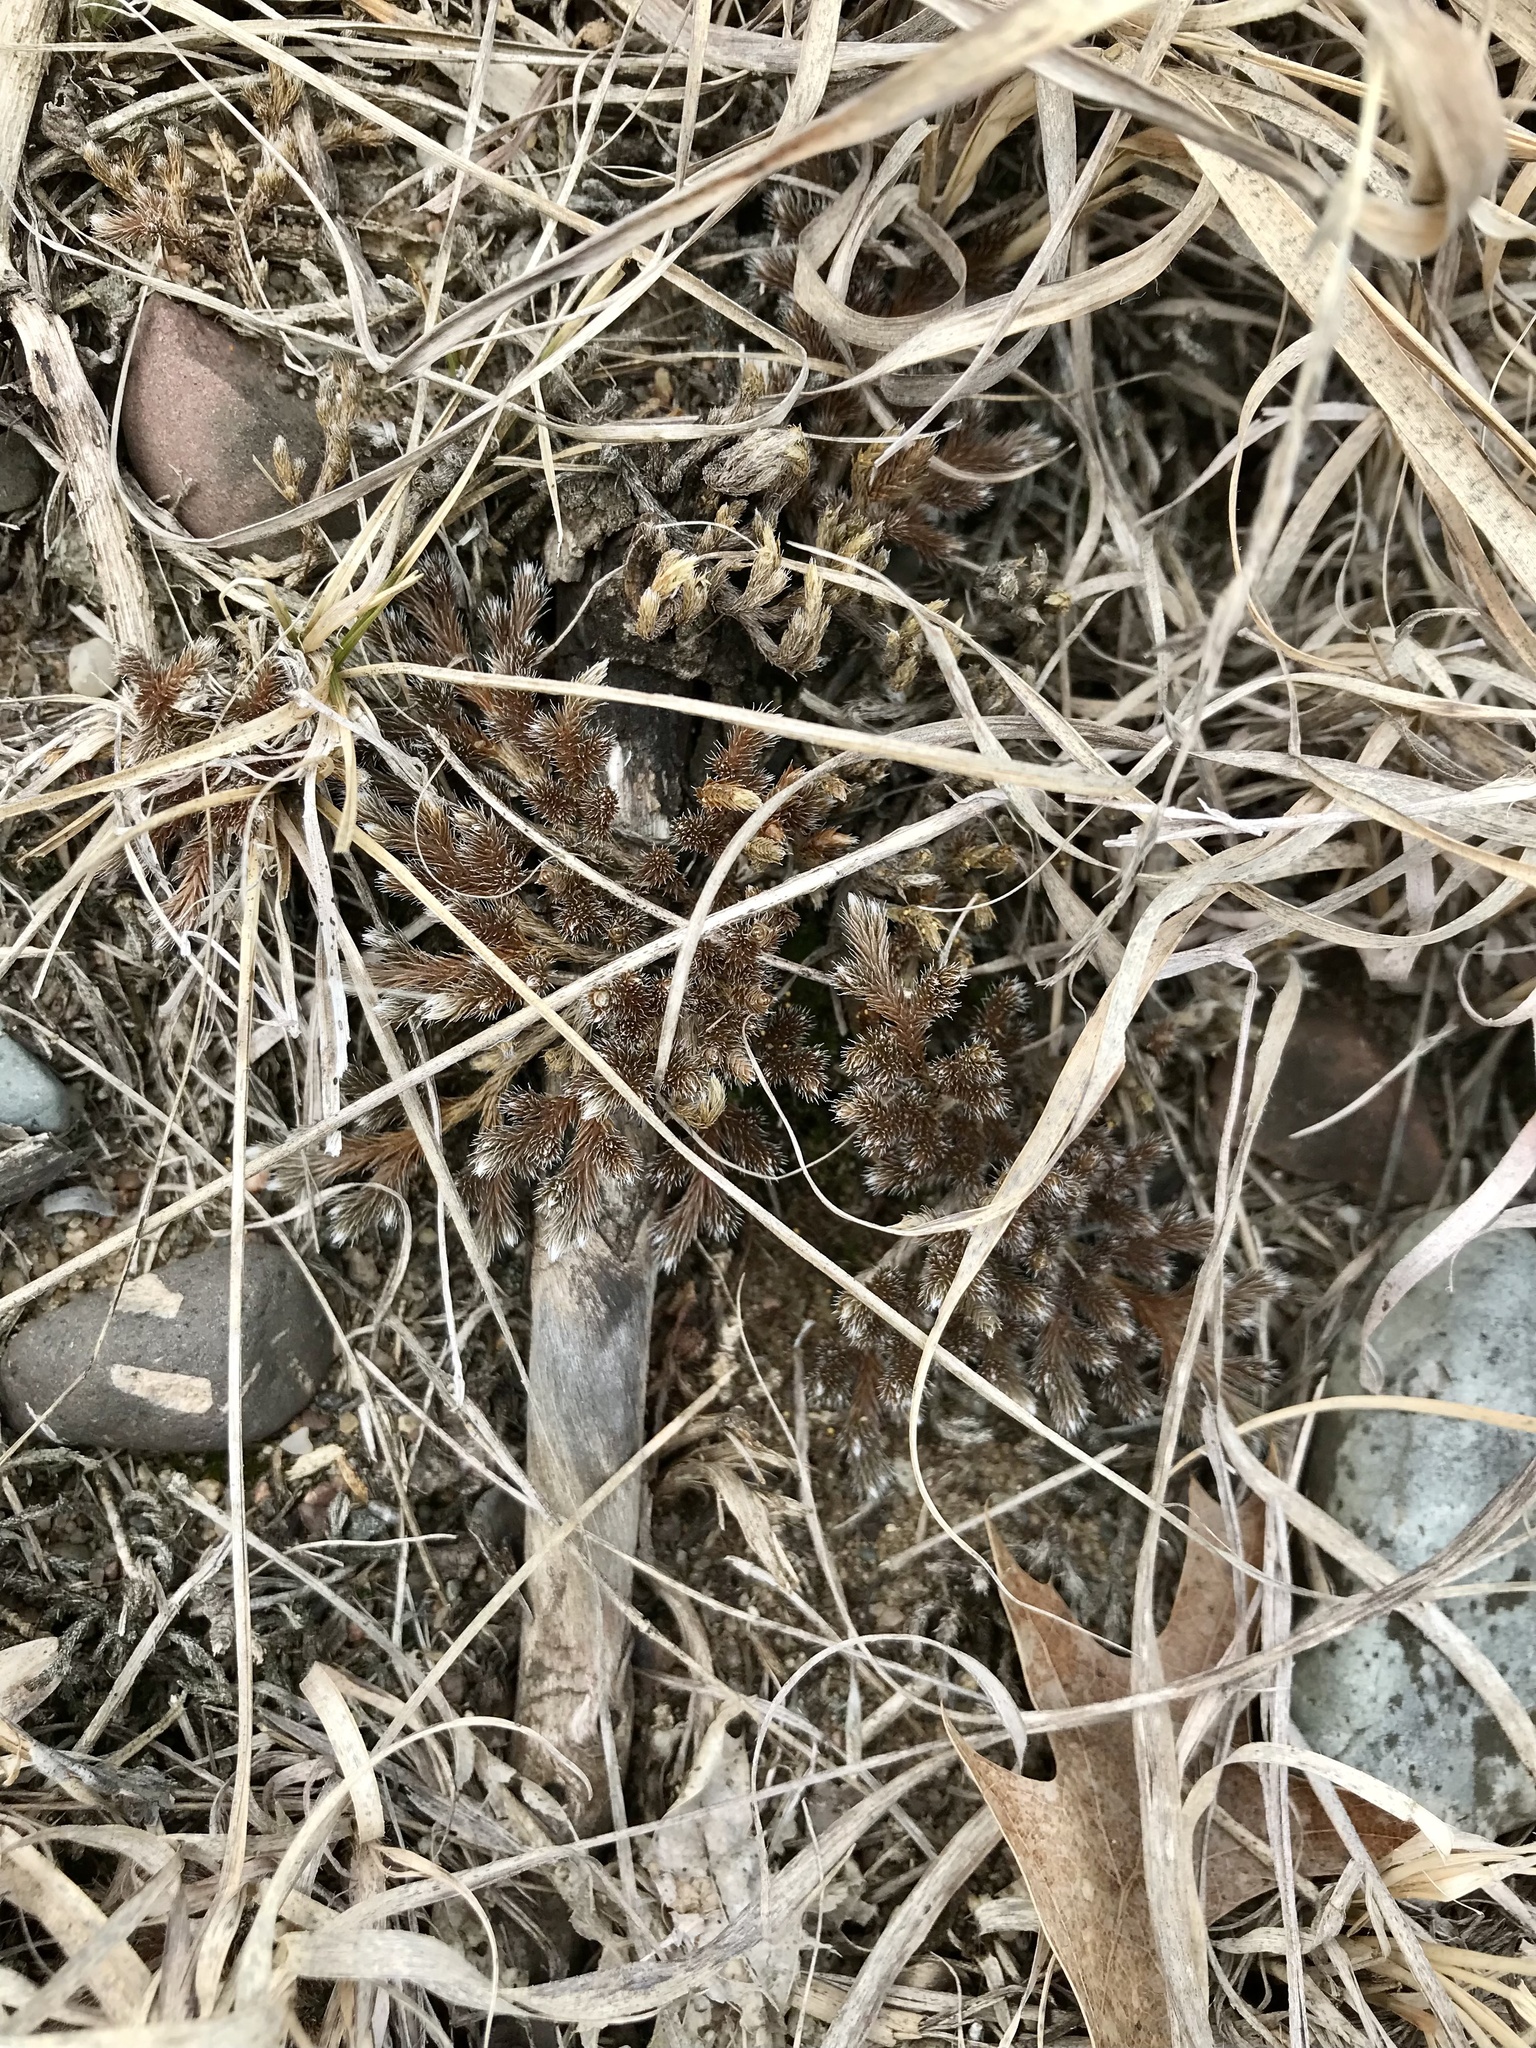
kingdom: Plantae
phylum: Tracheophyta
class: Lycopodiopsida
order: Selaginellales
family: Selaginellaceae
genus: Selaginella
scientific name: Selaginella rupestris
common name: Dwarf spikemoss
